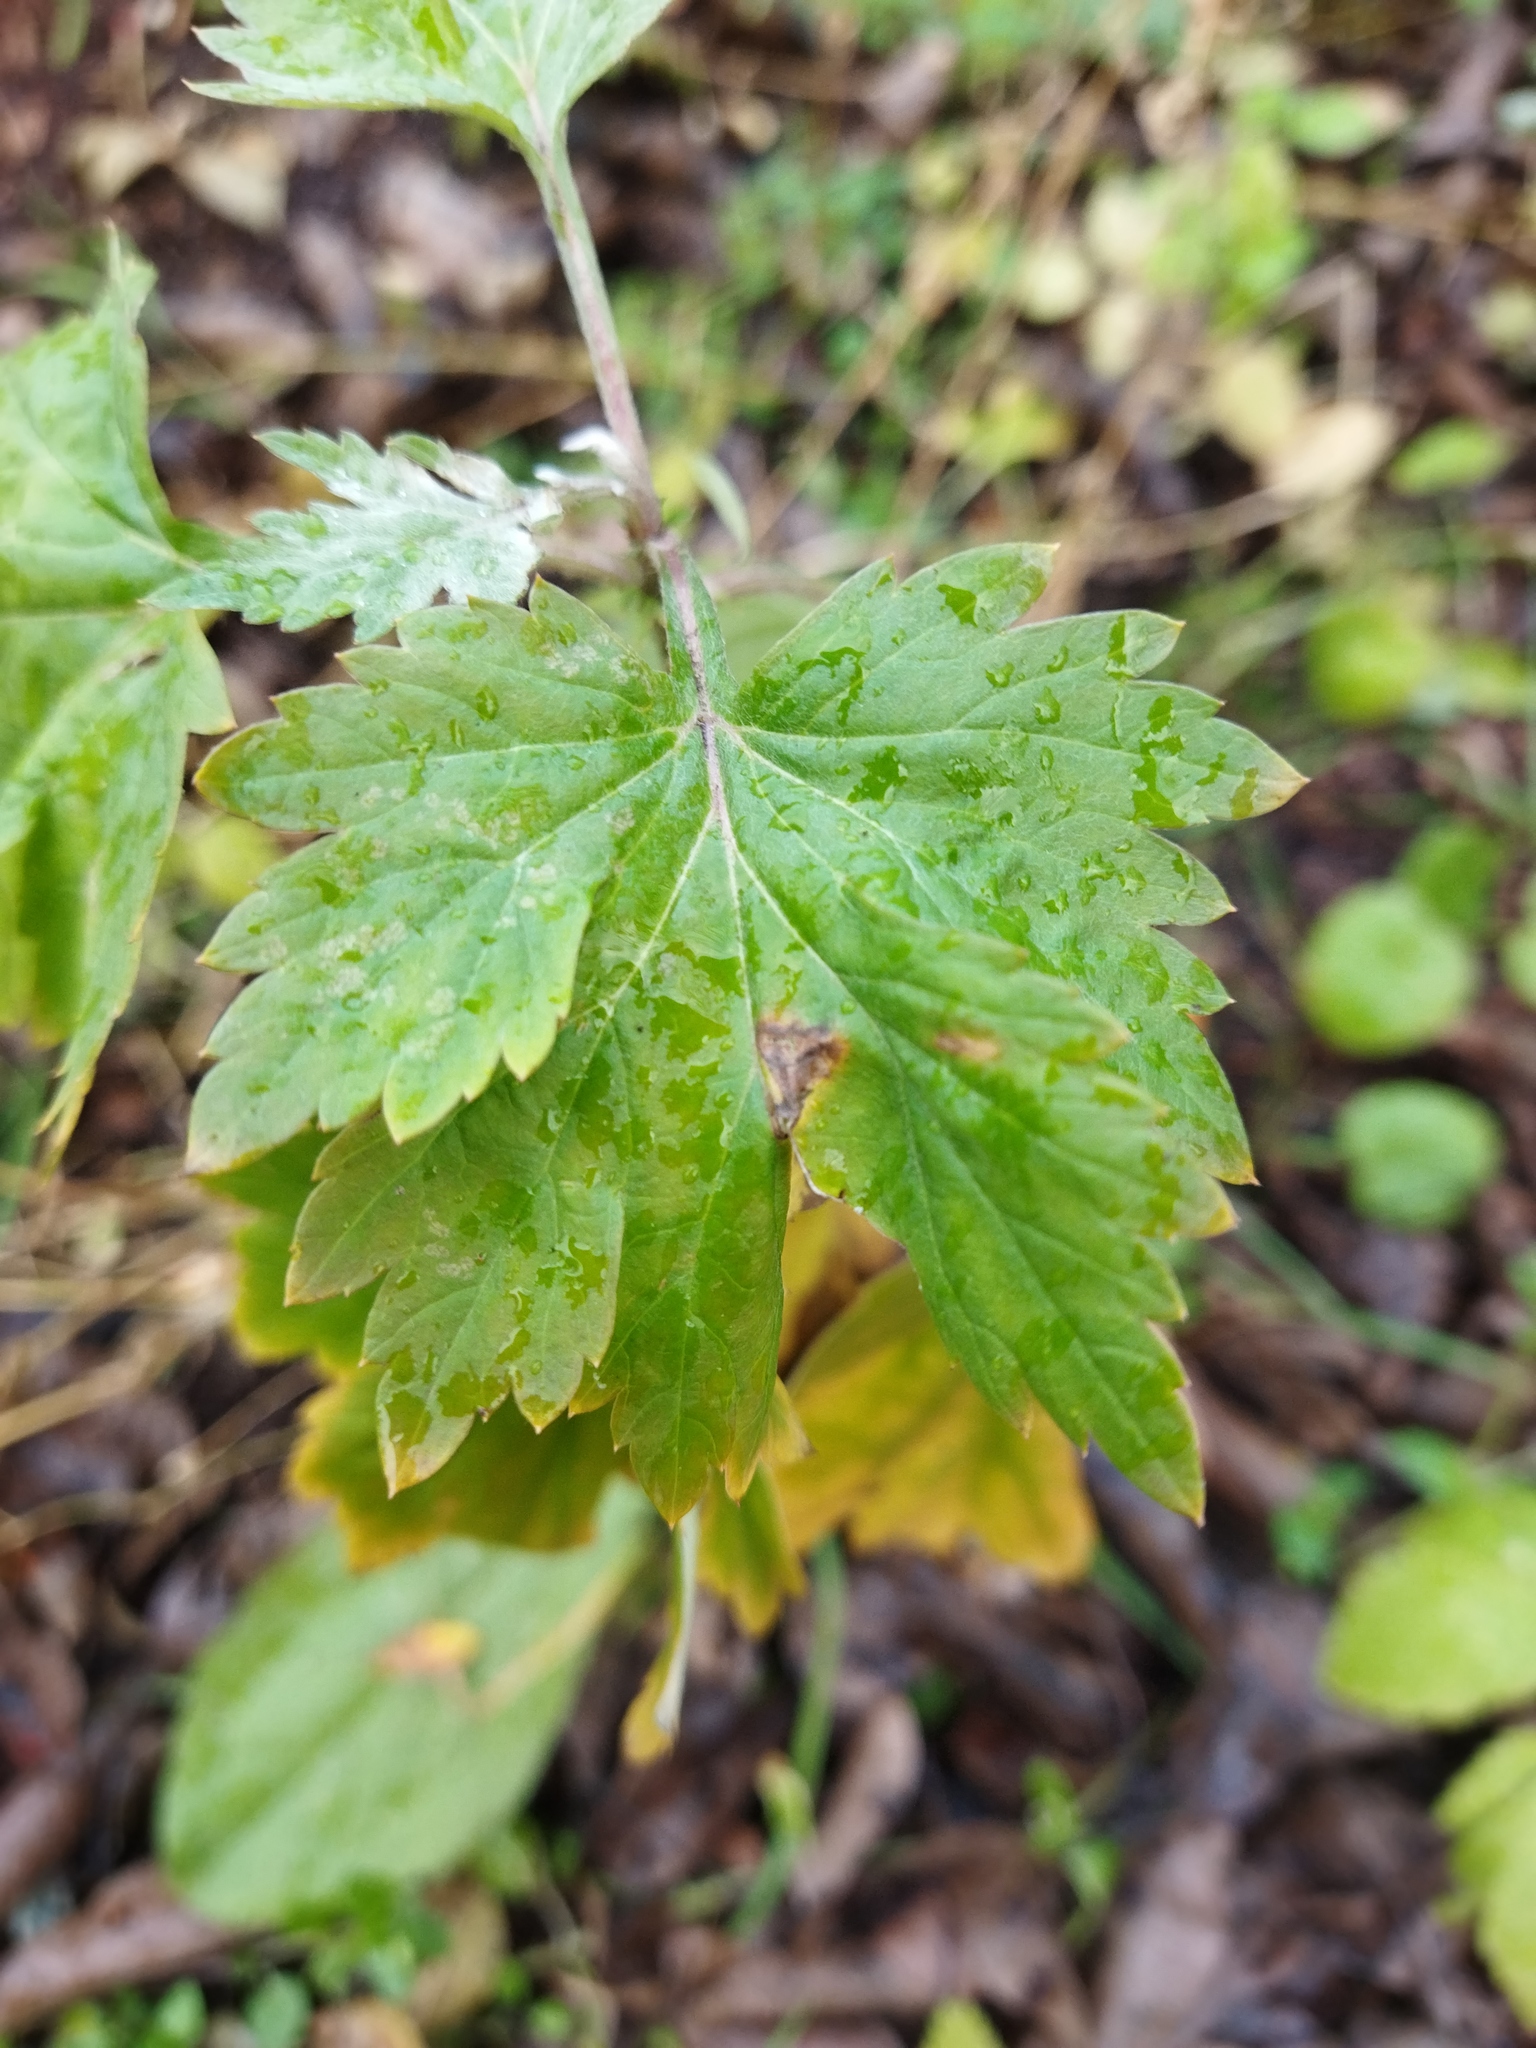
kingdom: Plantae
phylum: Tracheophyta
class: Magnoliopsida
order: Asterales
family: Asteraceae
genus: Artemisia
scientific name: Artemisia vulgaris
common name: Mugwort
